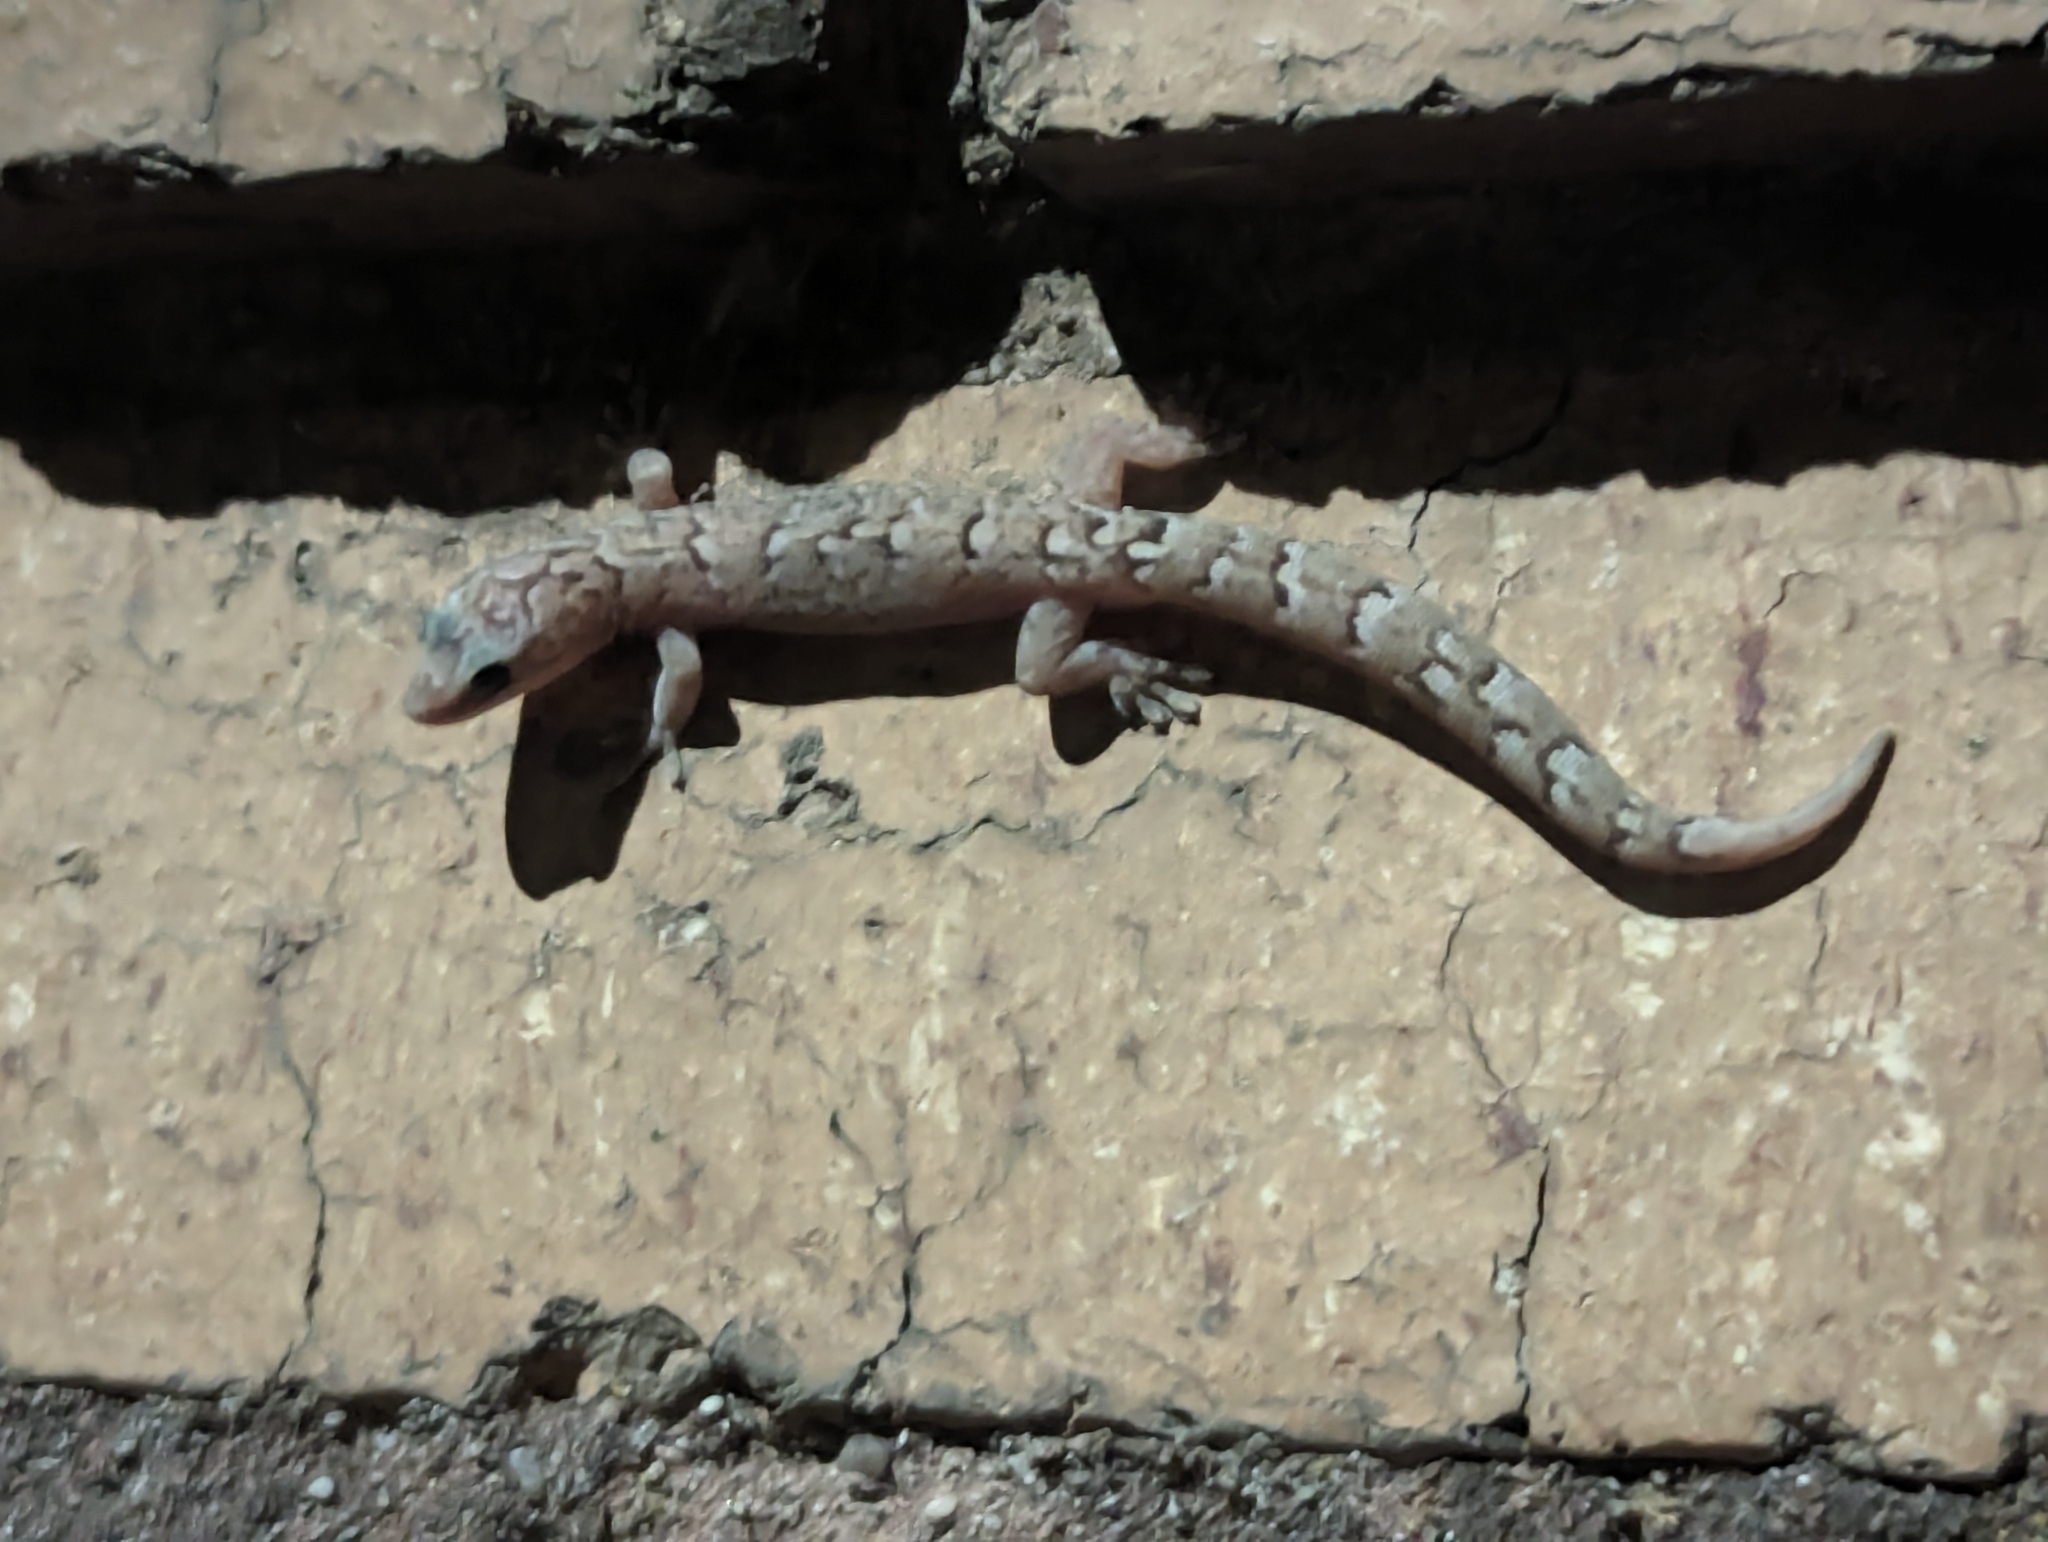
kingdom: Animalia
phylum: Chordata
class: Squamata
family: Gekkonidae
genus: Christinus
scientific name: Christinus marmoratus
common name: Marbled gecko
